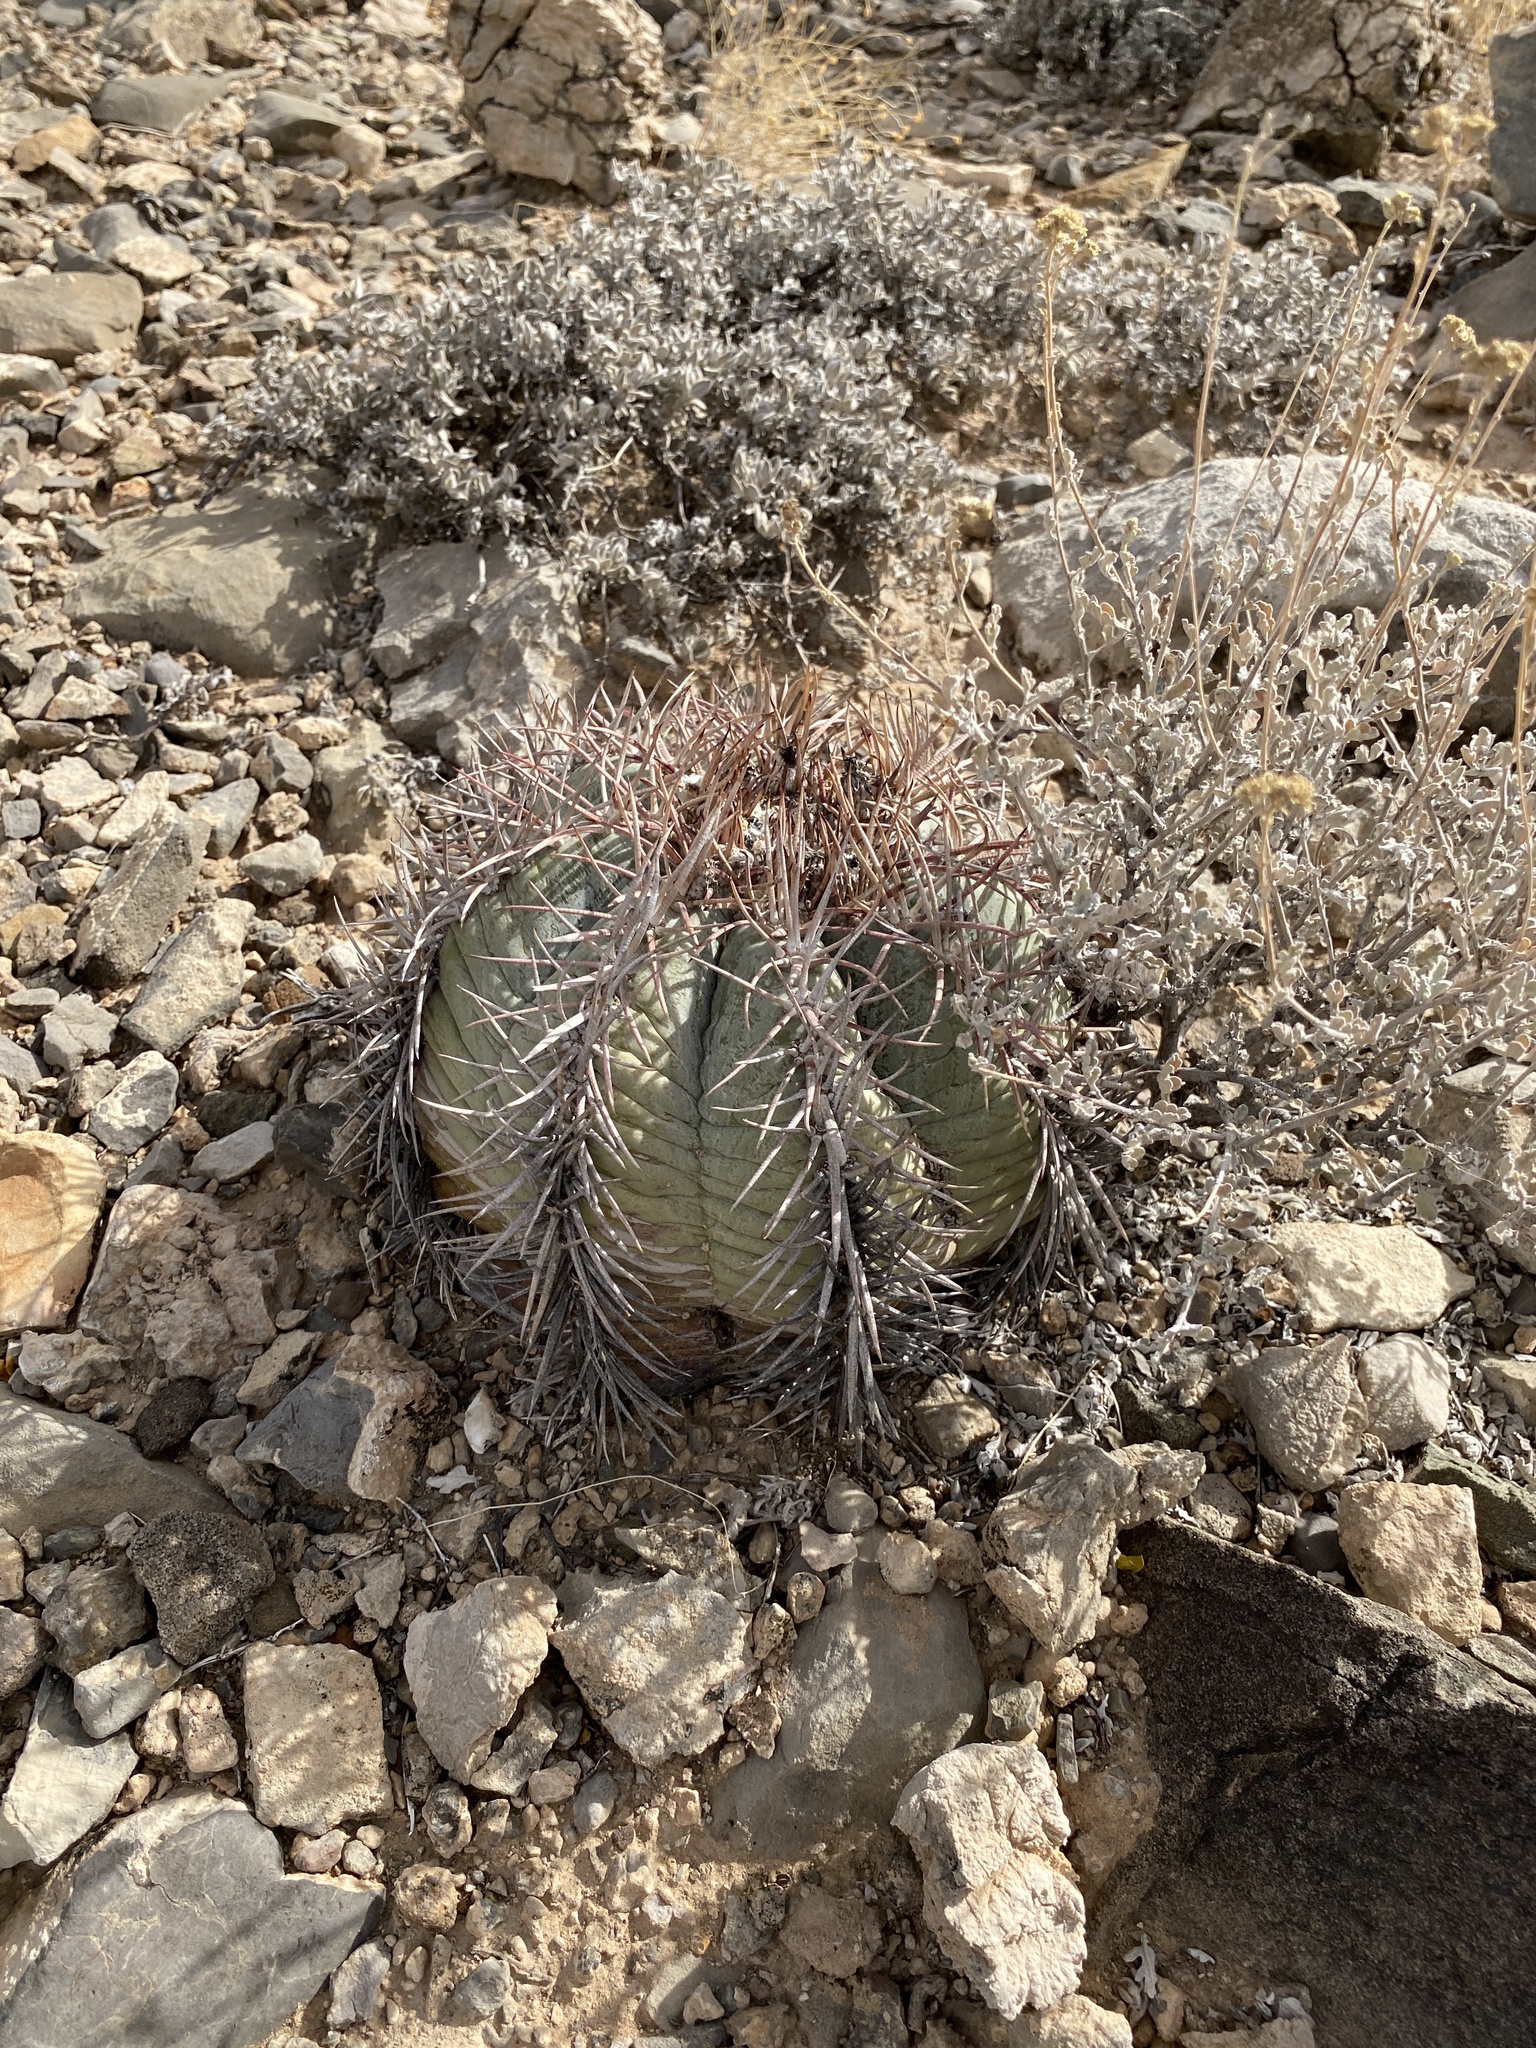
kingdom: Plantae
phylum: Tracheophyta
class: Magnoliopsida
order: Caryophyllales
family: Cactaceae
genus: Echinocactus
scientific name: Echinocactus horizonthalonius
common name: Devilshead
